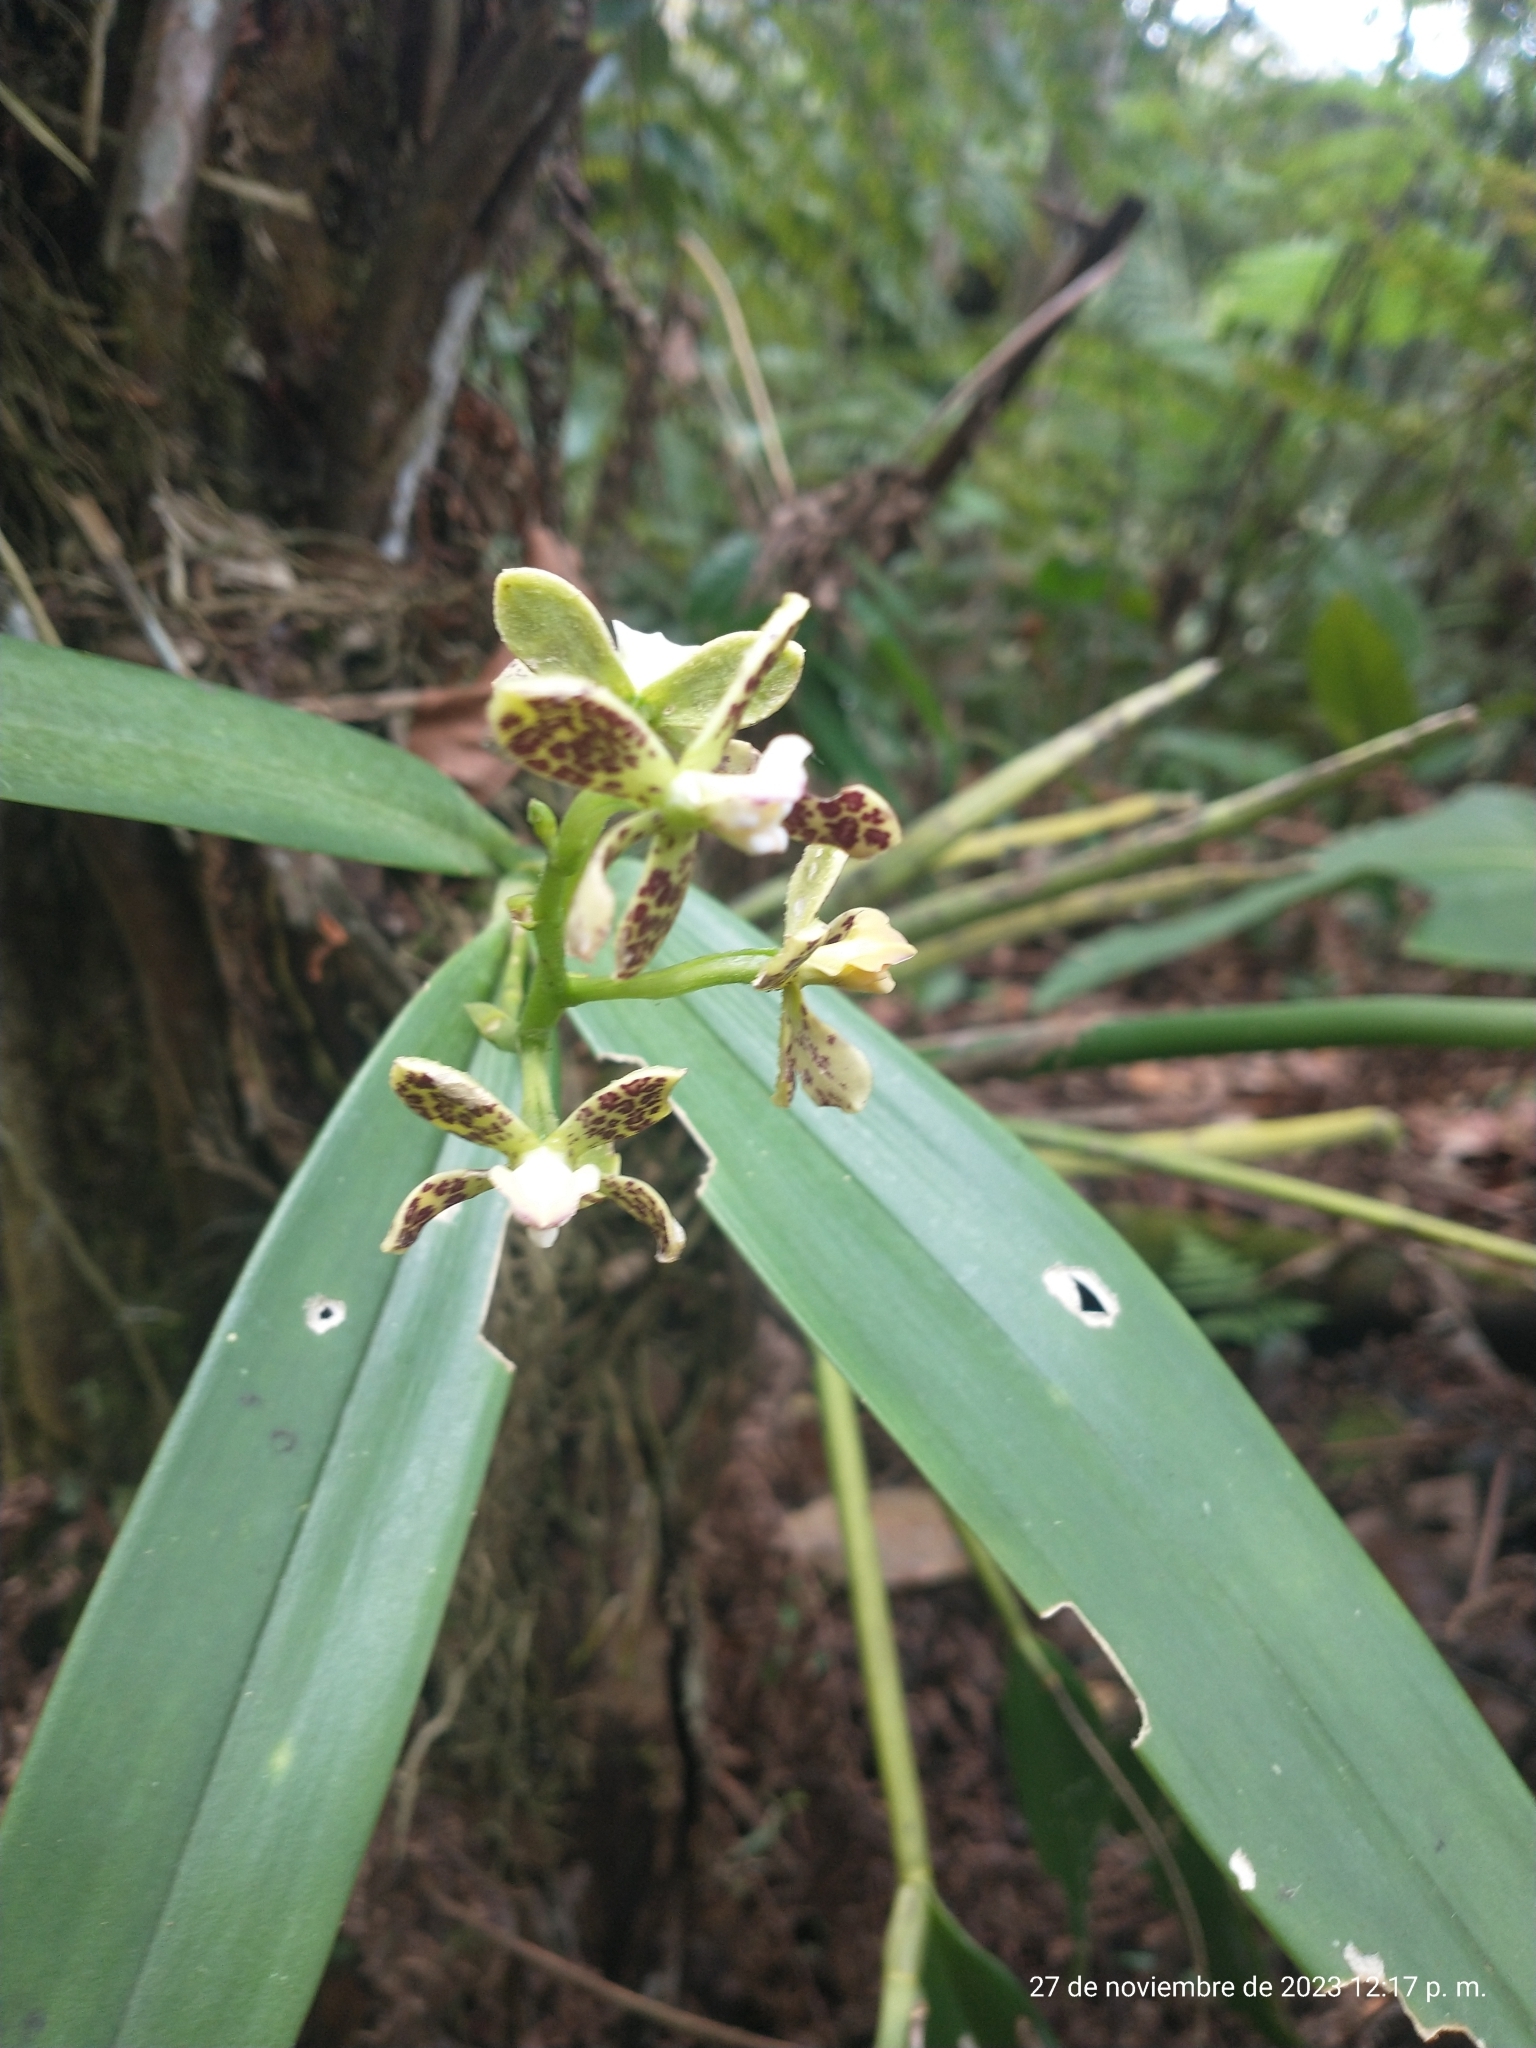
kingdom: Plantae
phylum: Tracheophyta
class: Liliopsida
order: Asparagales
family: Orchidaceae
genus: Prosthechea
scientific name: Prosthechea crassilabia
